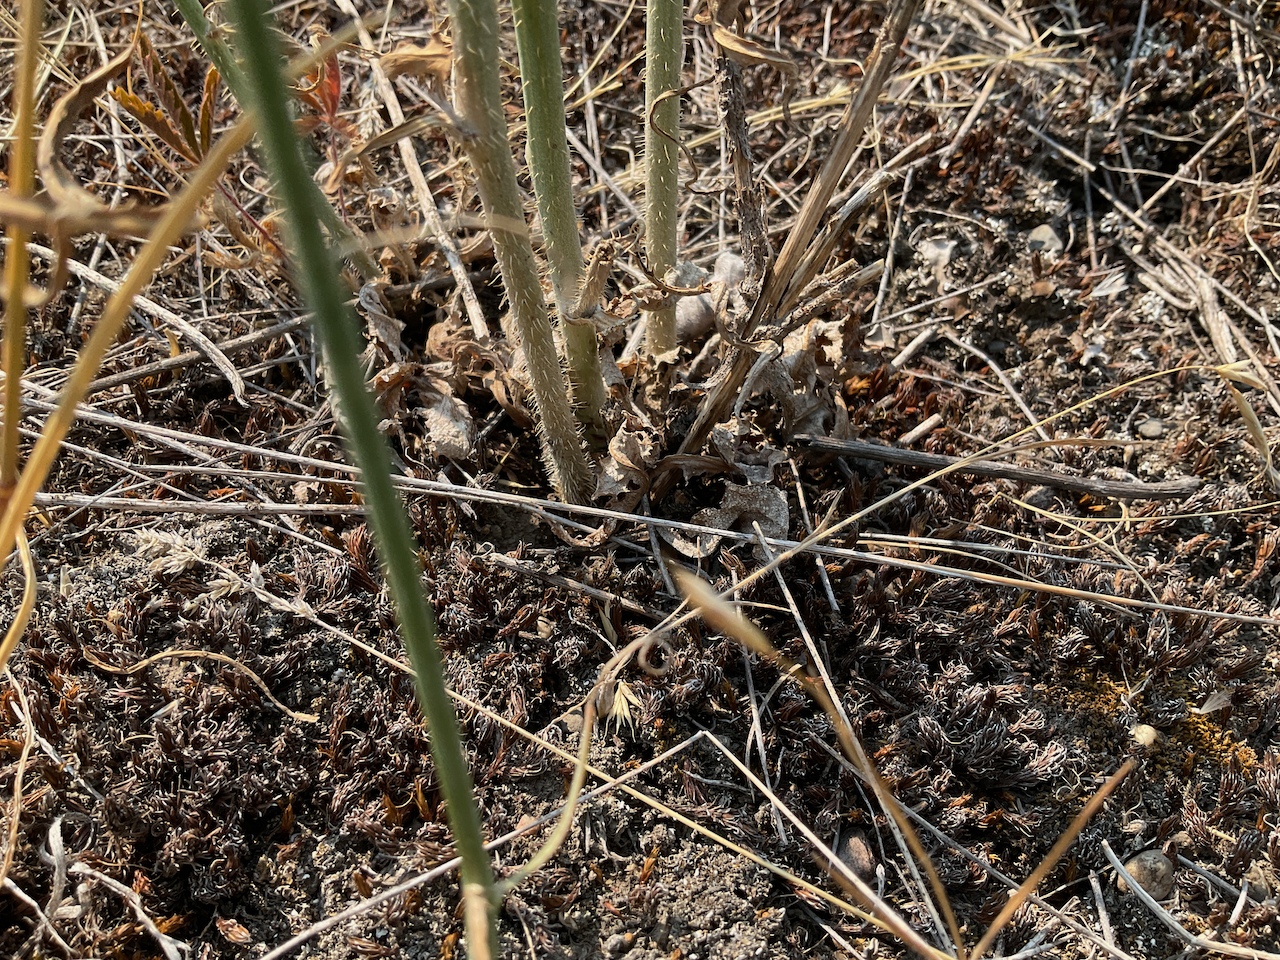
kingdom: Plantae
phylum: Tracheophyta
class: Magnoliopsida
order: Asterales
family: Asteraceae
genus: Chondrilla
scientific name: Chondrilla juncea
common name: Skeleton weed
